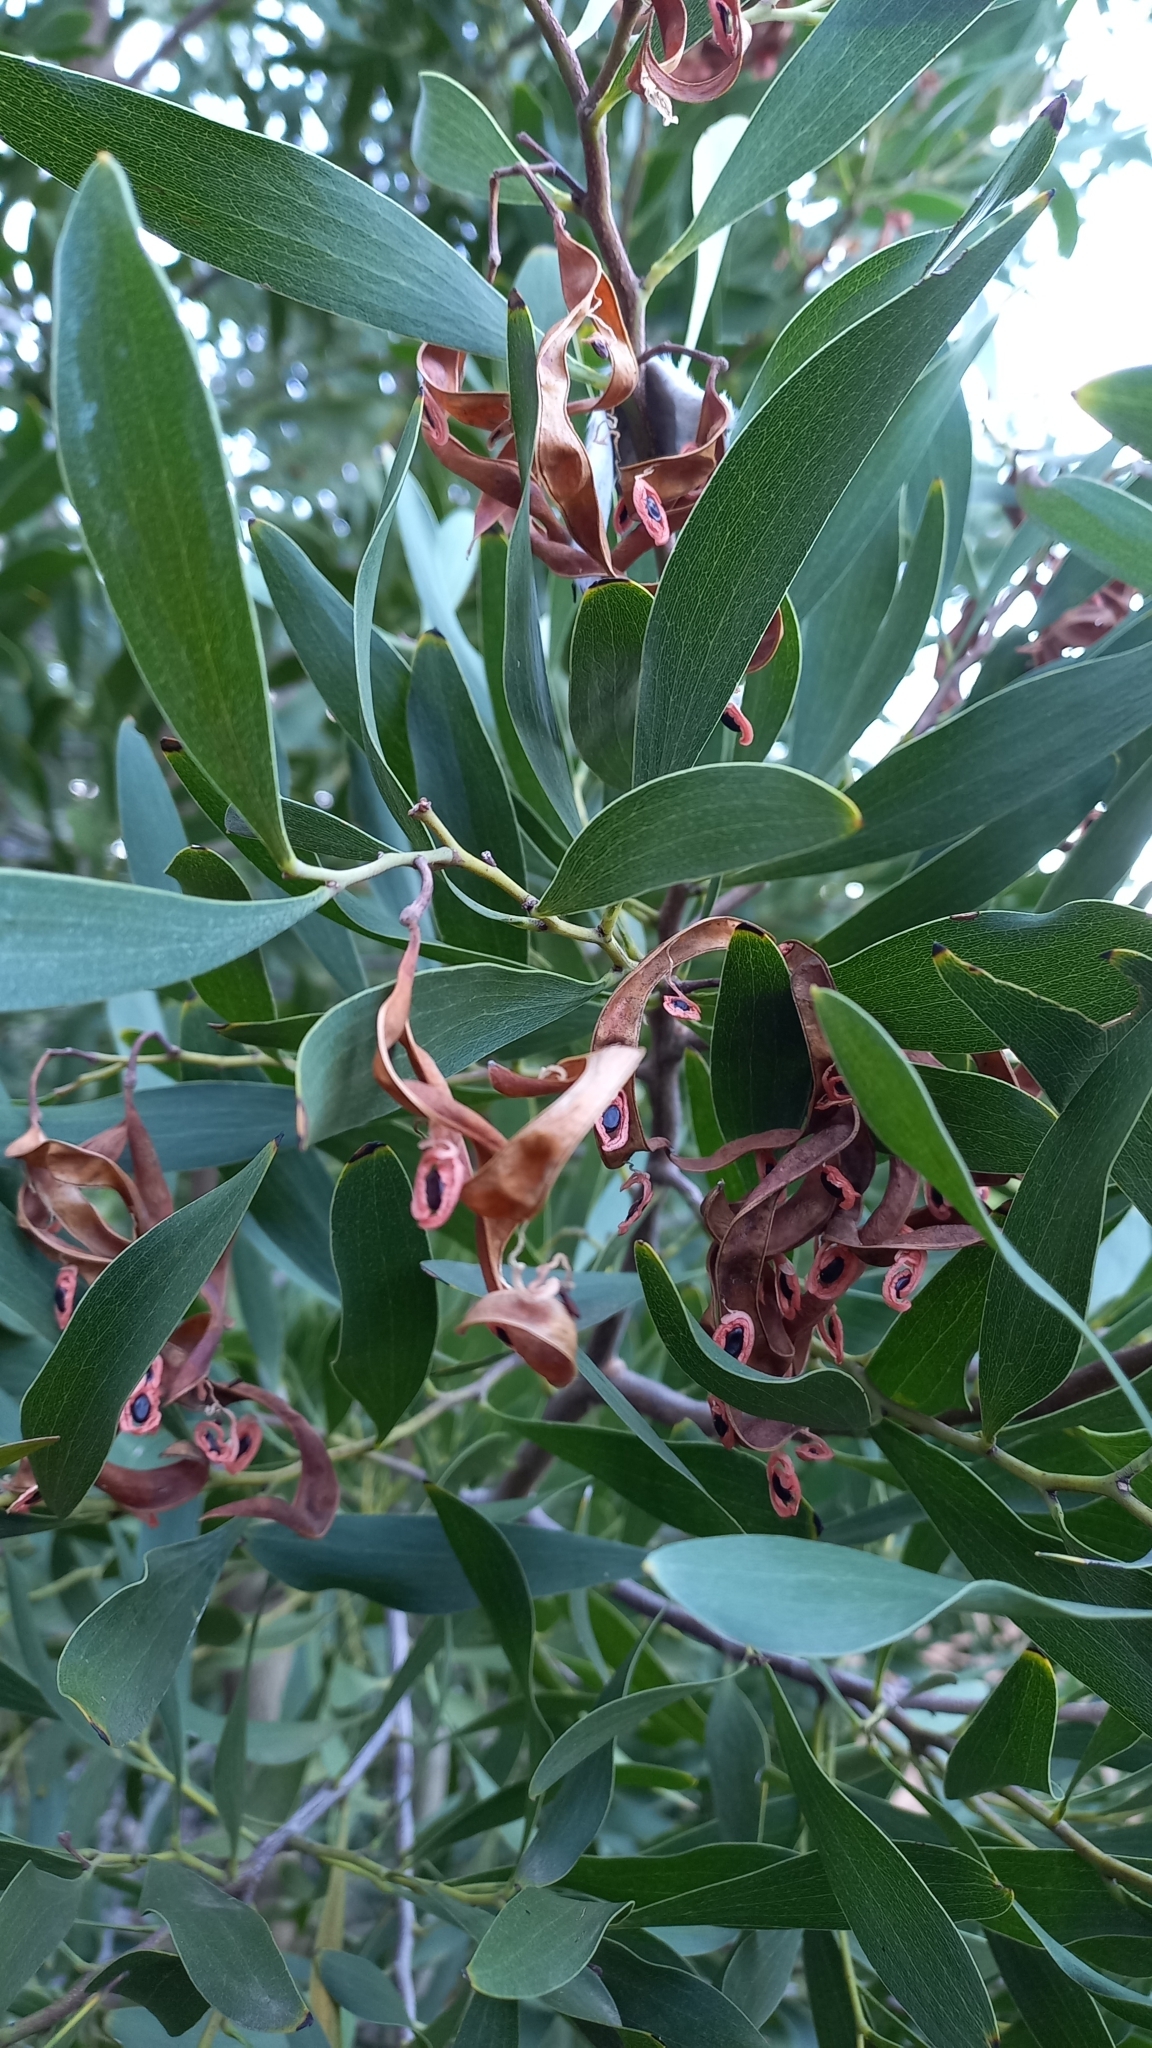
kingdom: Plantae
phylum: Tracheophyta
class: Magnoliopsida
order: Fabales
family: Fabaceae
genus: Acacia
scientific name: Acacia melanoxylon
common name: Blackwood
